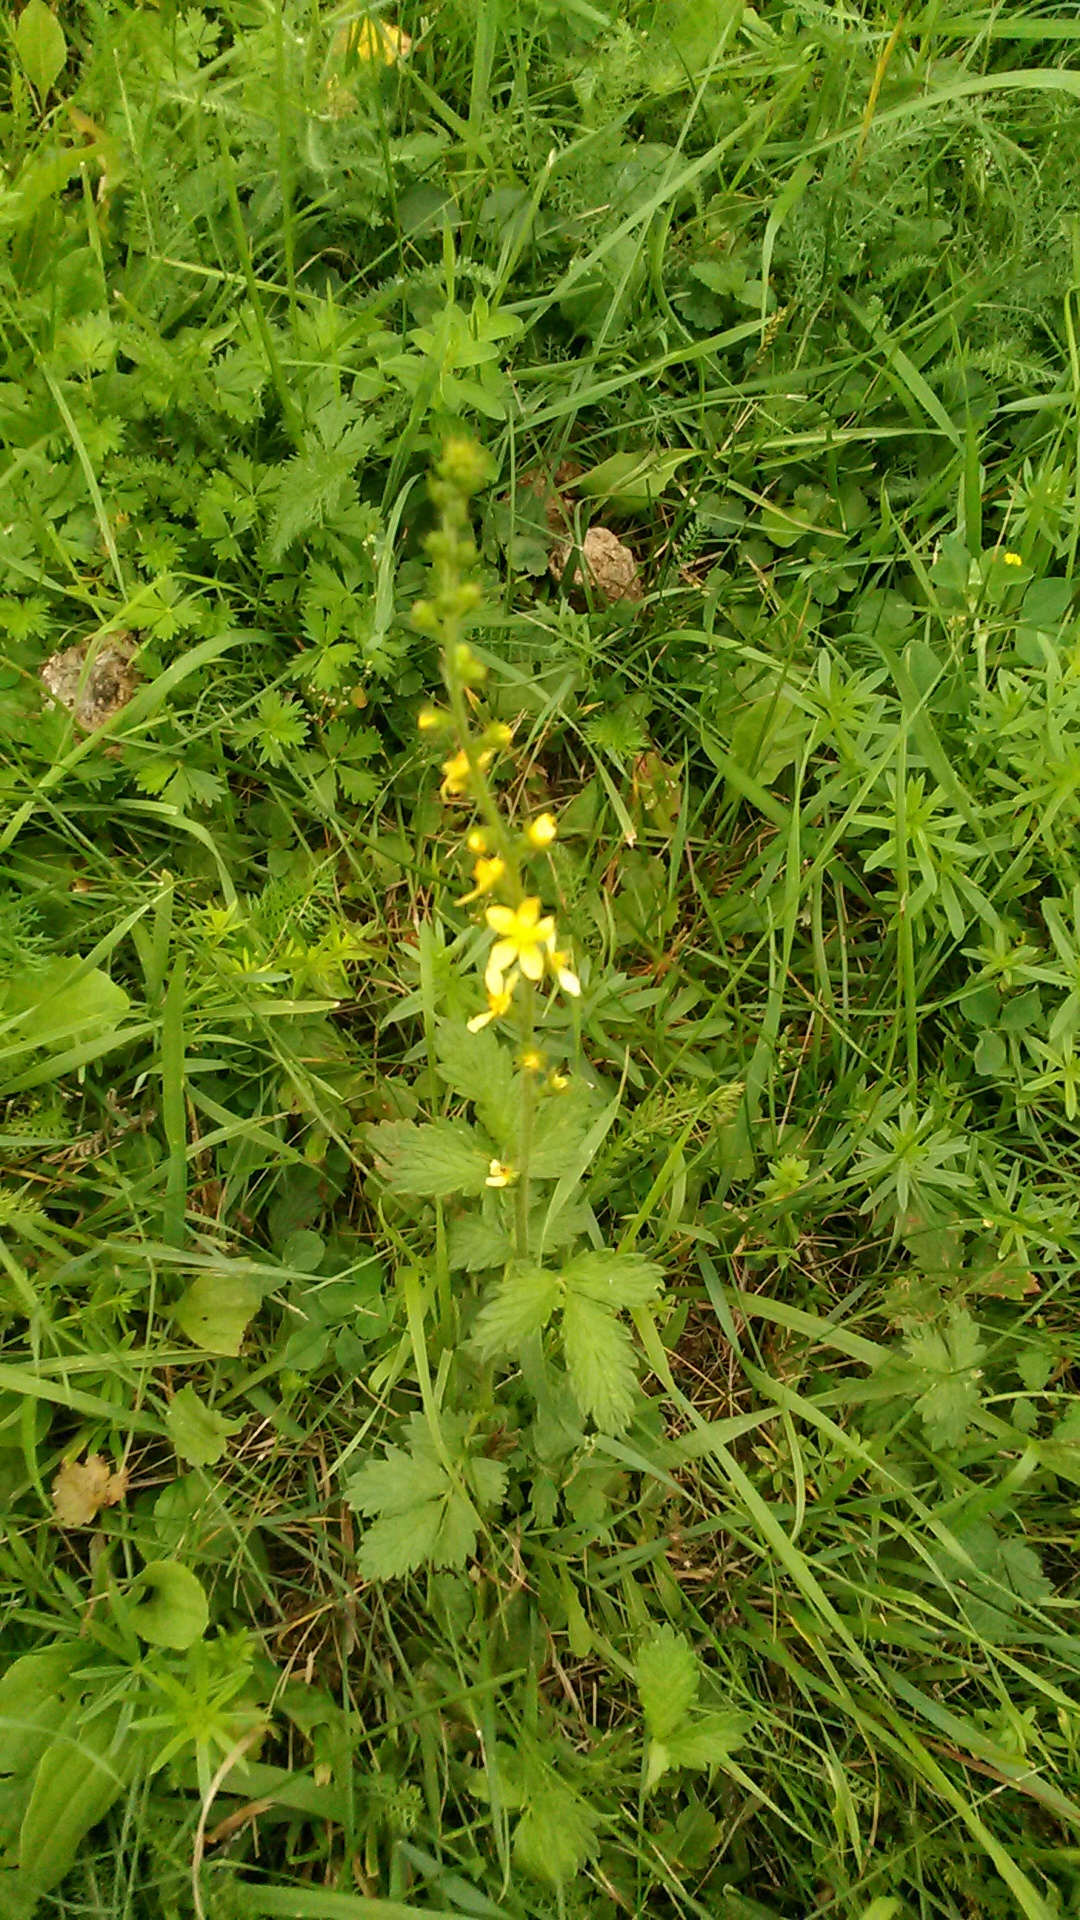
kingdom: Plantae
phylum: Tracheophyta
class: Magnoliopsida
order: Rosales
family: Rosaceae
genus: Agrimonia
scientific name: Agrimonia eupatoria
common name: Agrimony
